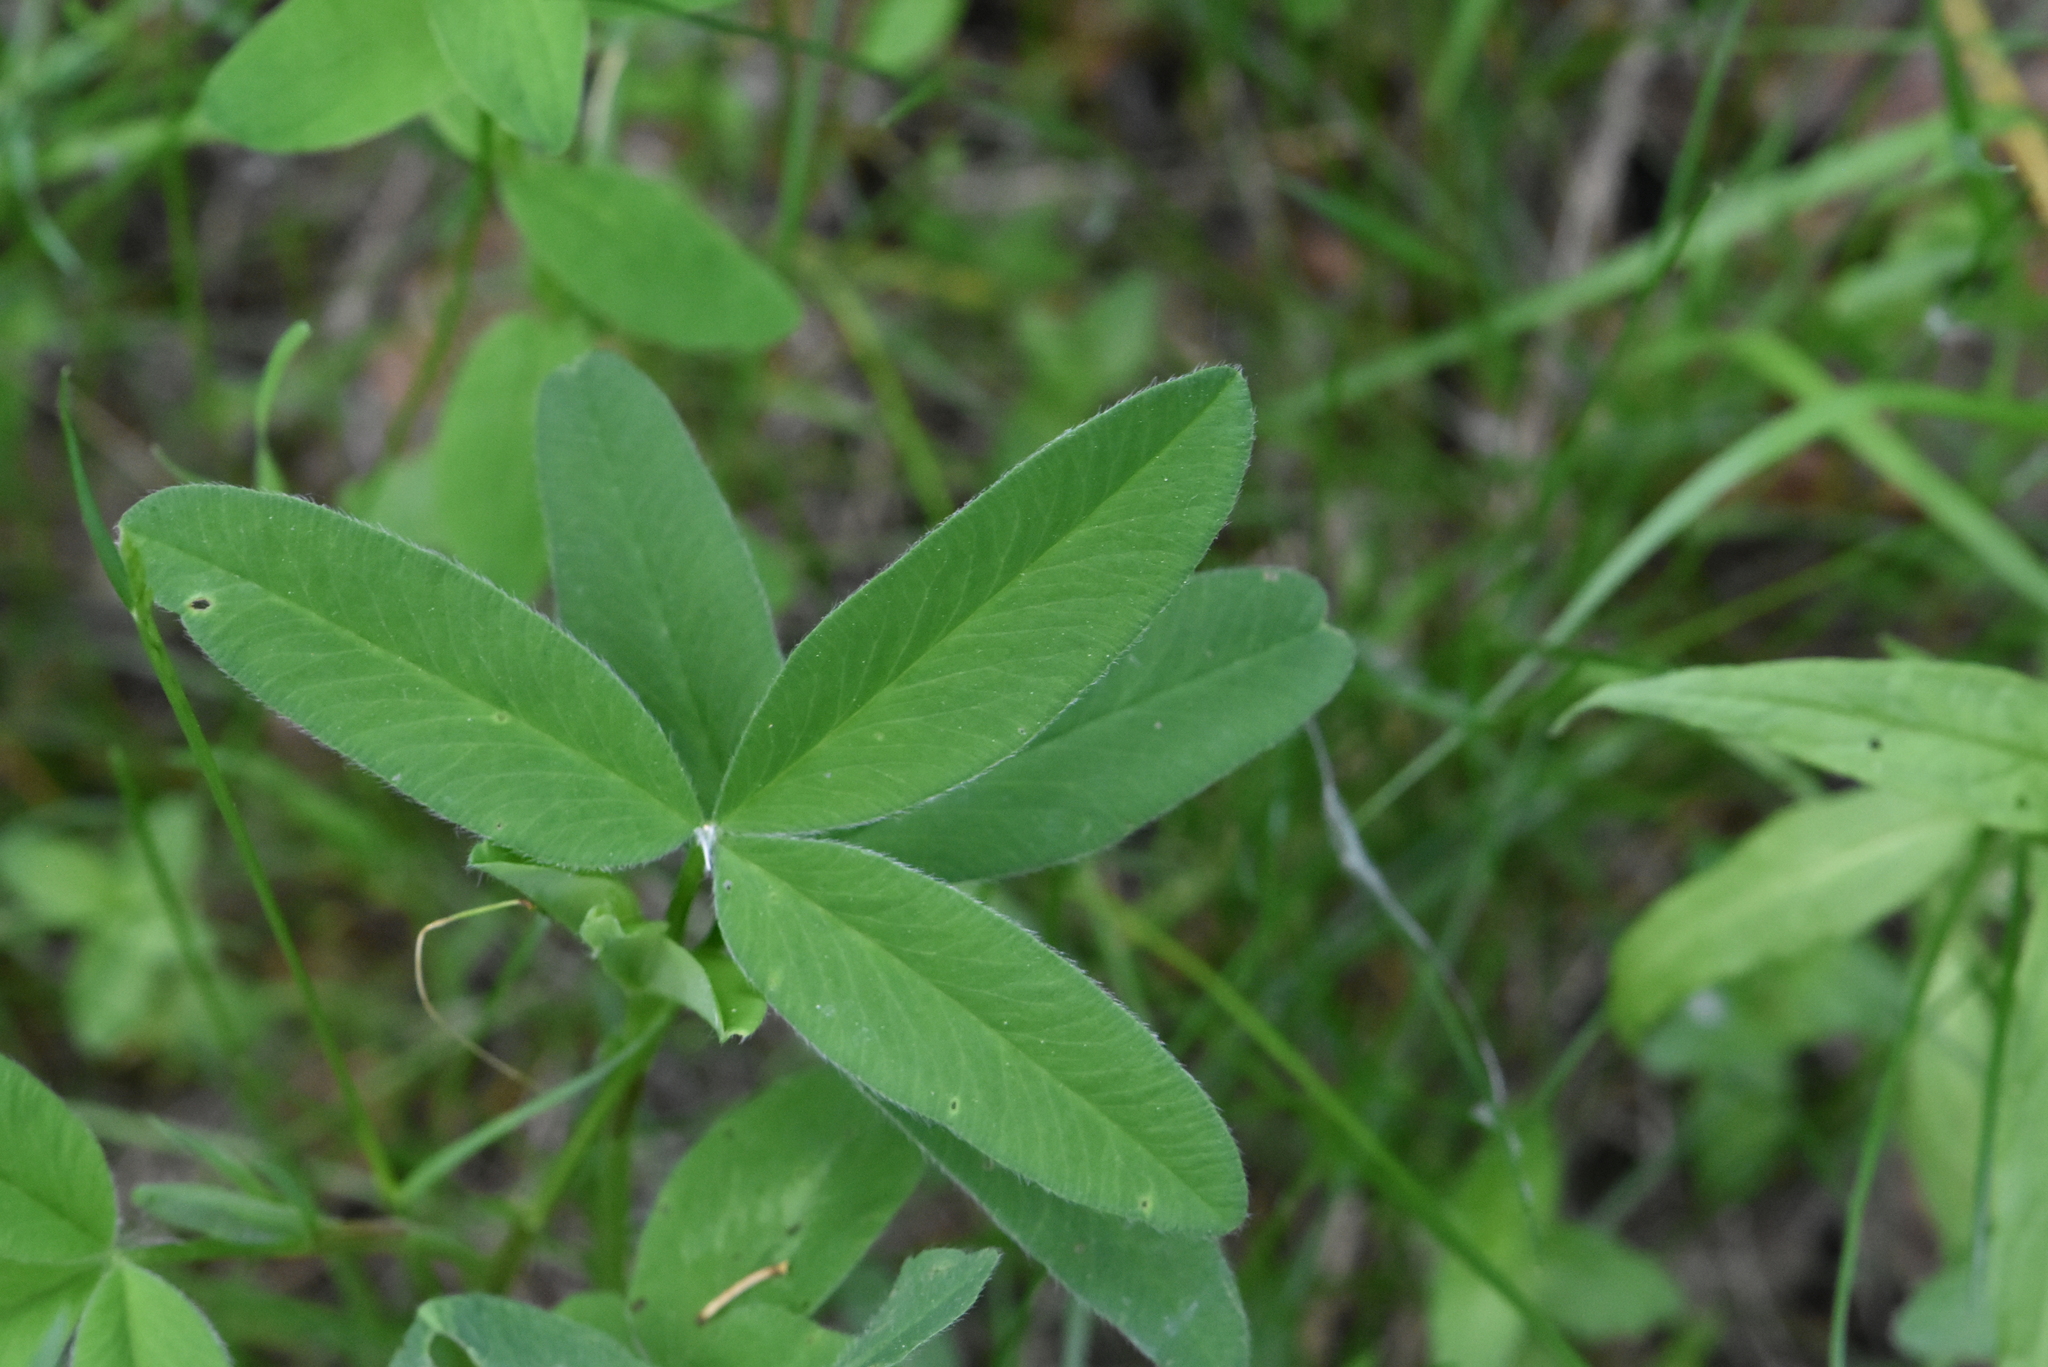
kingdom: Plantae
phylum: Tracheophyta
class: Magnoliopsida
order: Fabales
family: Fabaceae
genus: Trifolium
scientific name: Trifolium medium
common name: Zigzag clover
